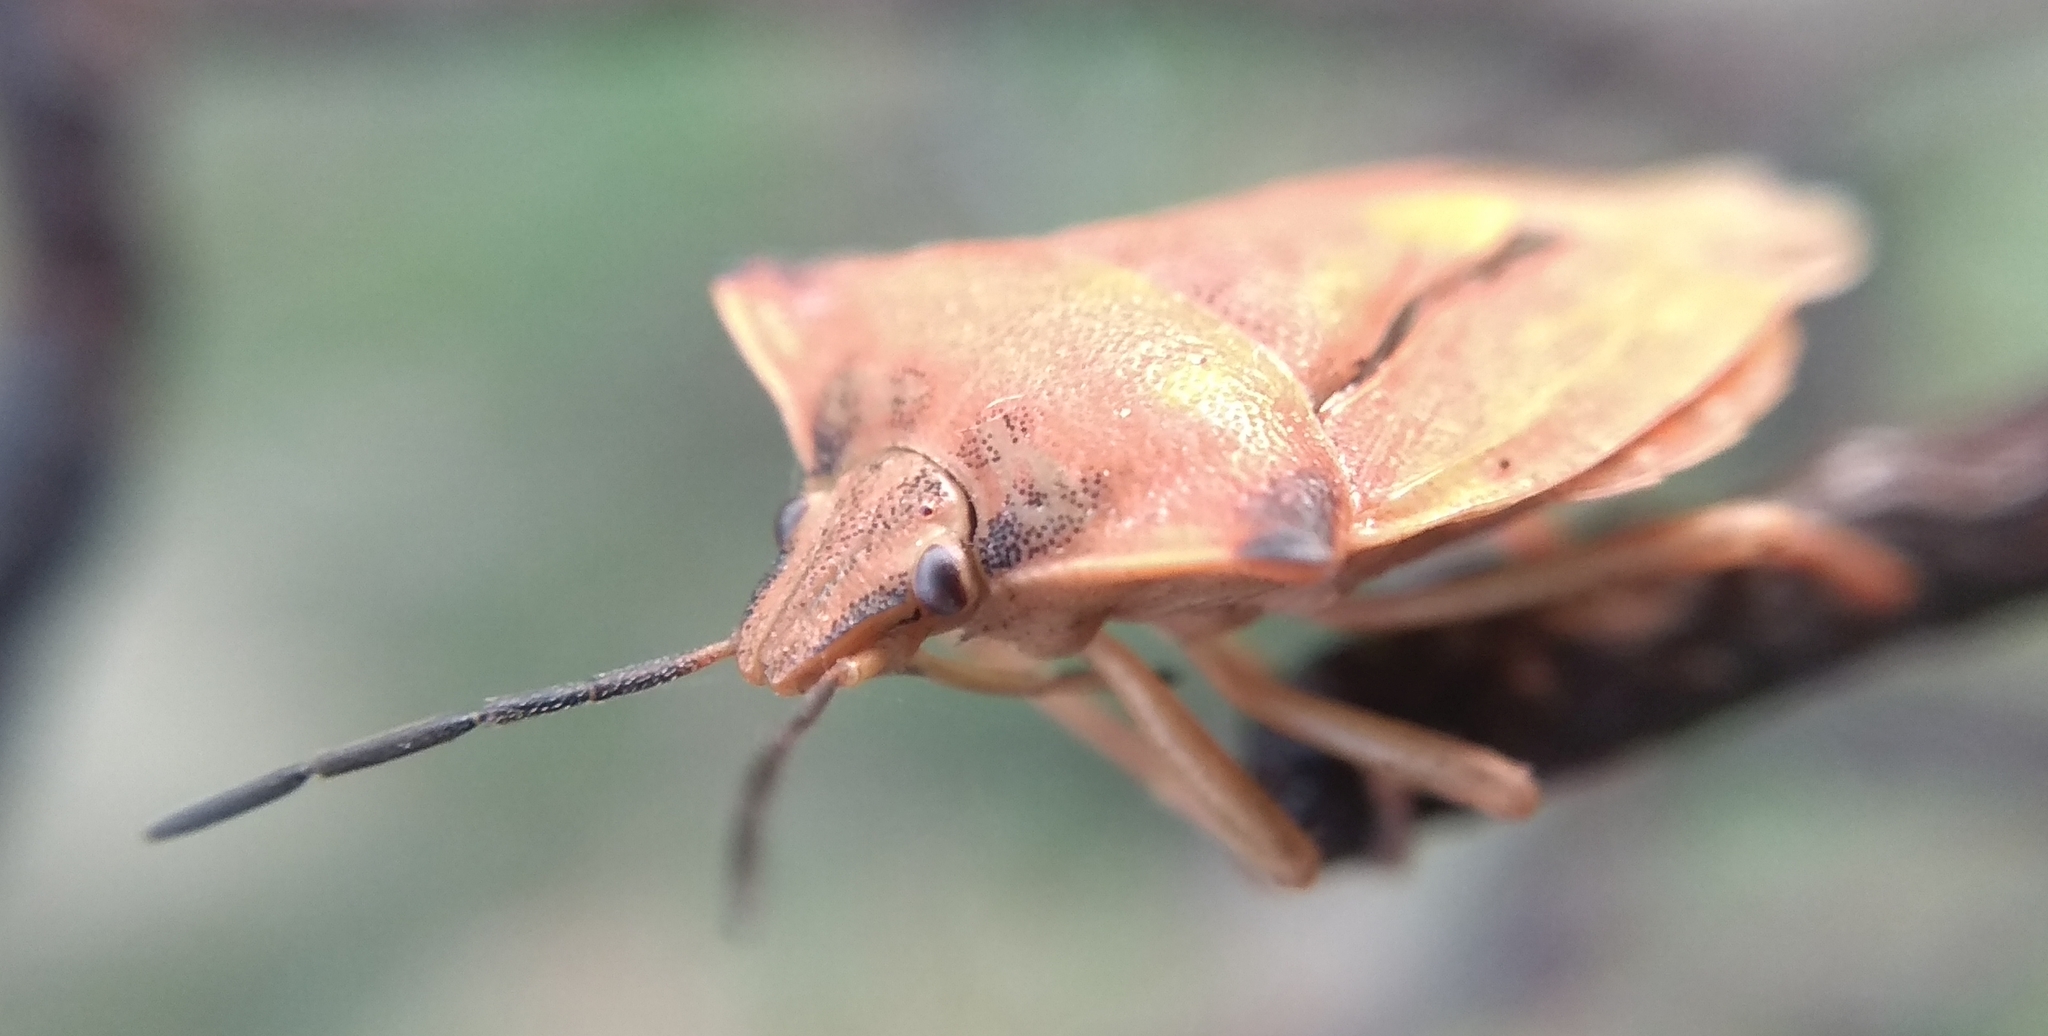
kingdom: Animalia
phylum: Arthropoda
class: Insecta
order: Hemiptera
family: Pentatomidae
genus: Carpocoris
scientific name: Carpocoris fuscispinus
